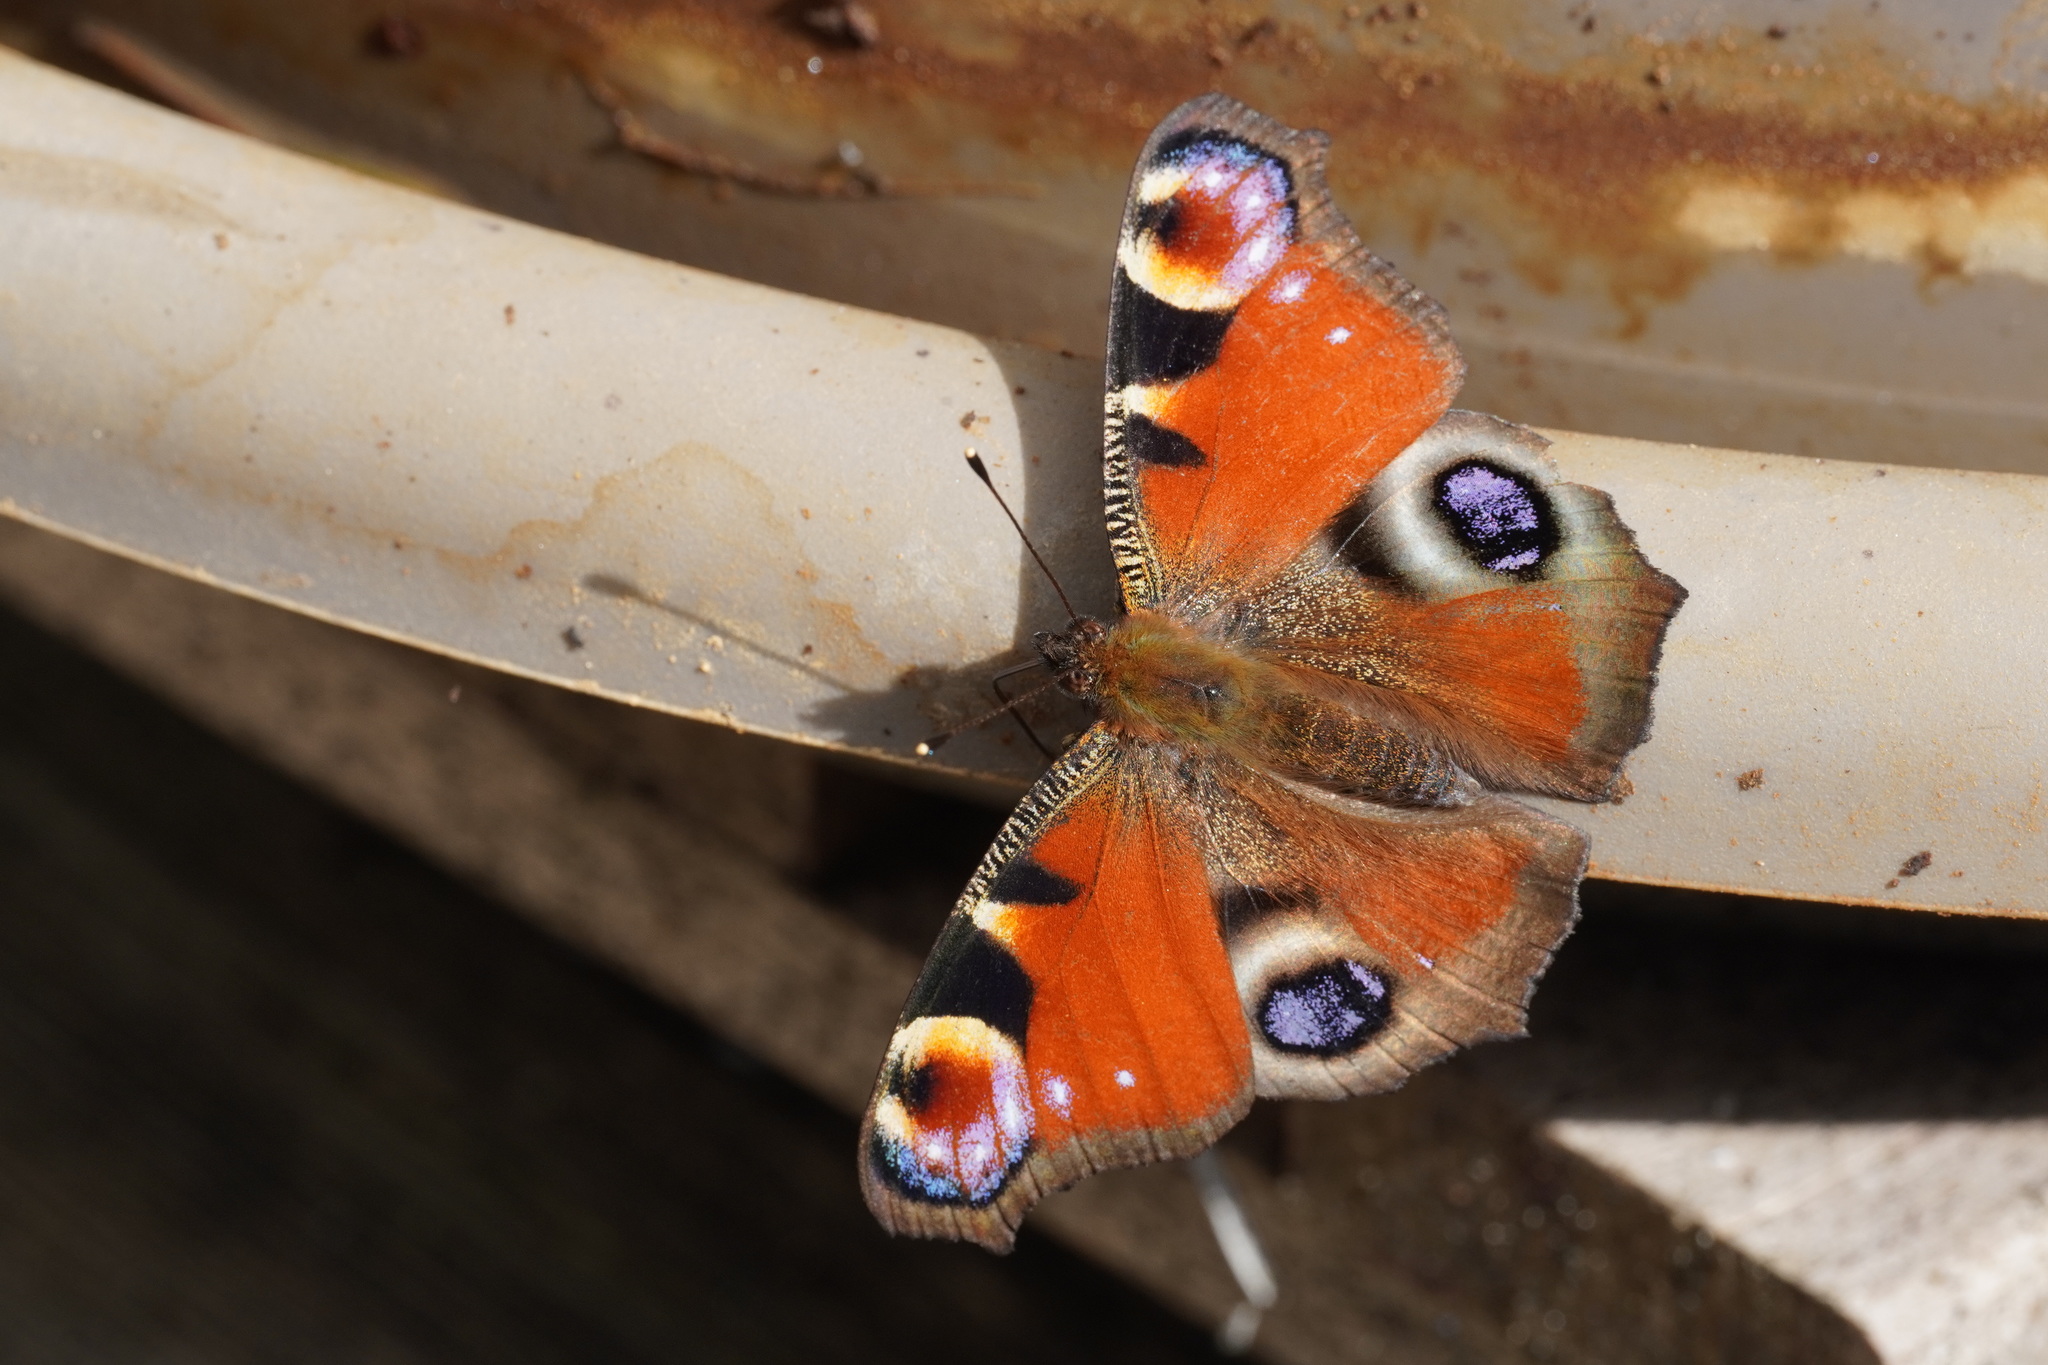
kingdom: Animalia
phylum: Arthropoda
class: Insecta
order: Lepidoptera
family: Nymphalidae
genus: Aglais
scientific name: Aglais io
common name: Peacock
